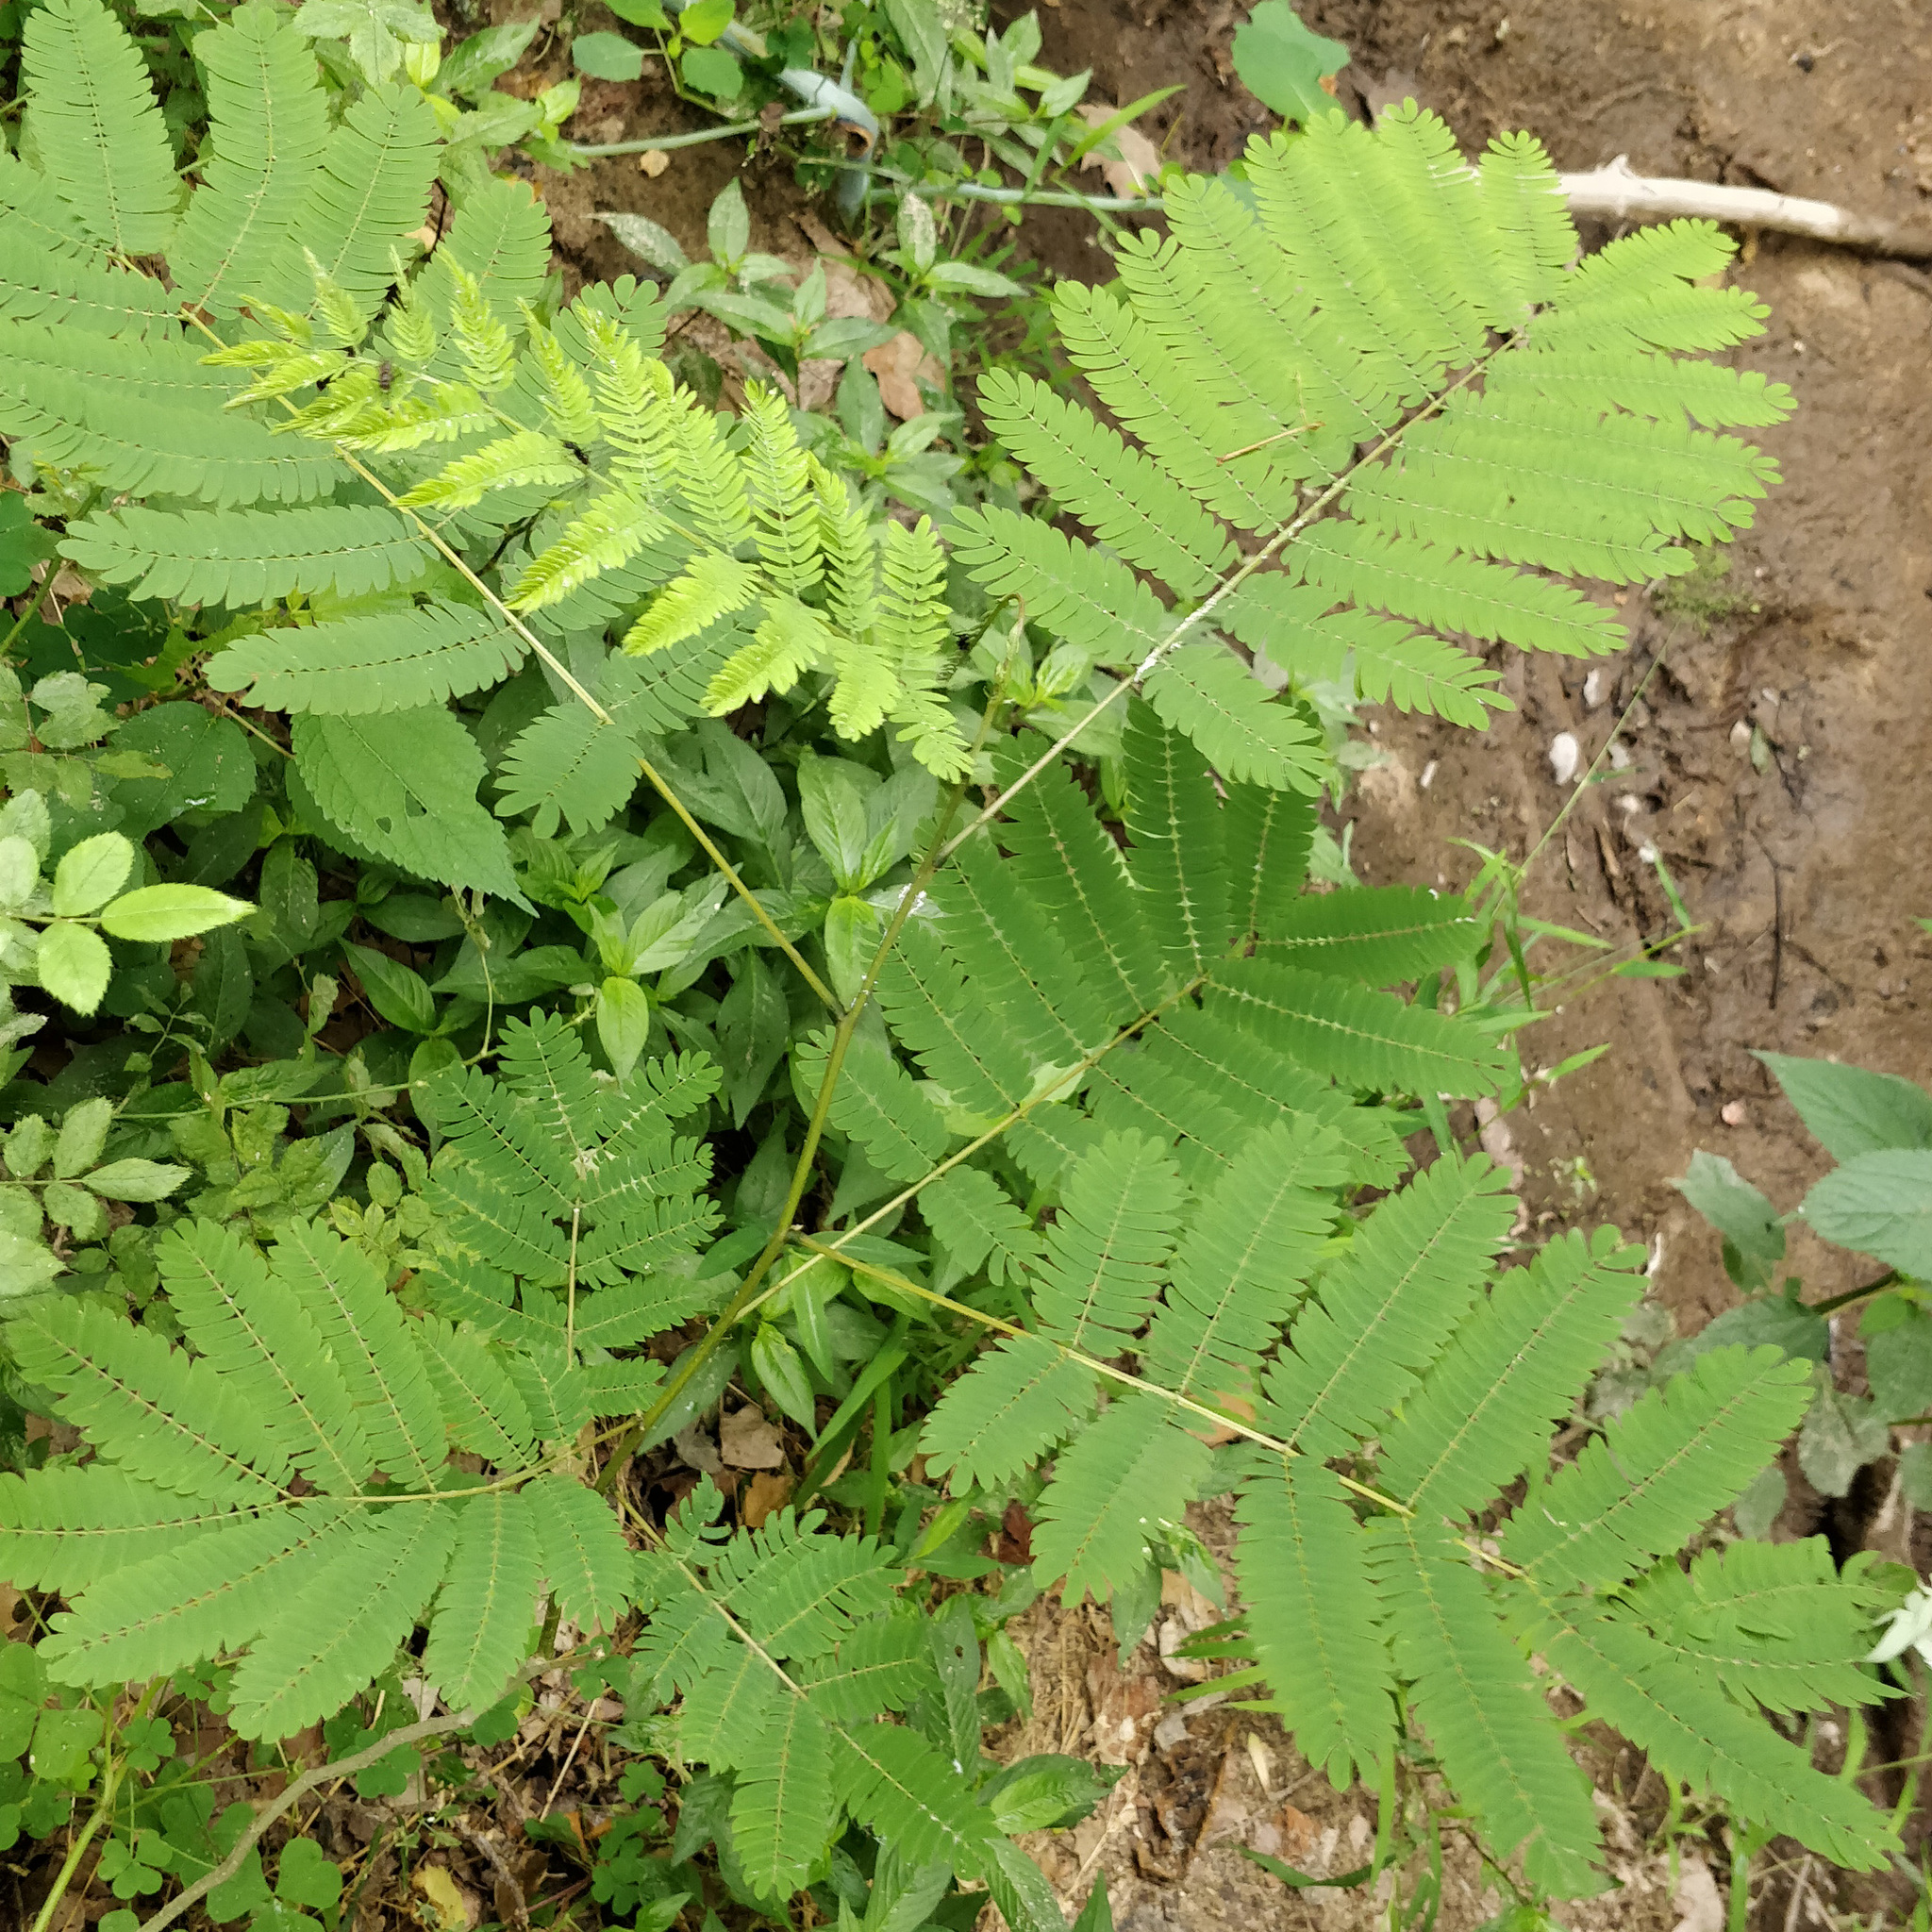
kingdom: Plantae
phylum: Tracheophyta
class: Magnoliopsida
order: Fabales
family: Fabaceae
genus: Albizia
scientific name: Albizia julibrissin
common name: Silktree
